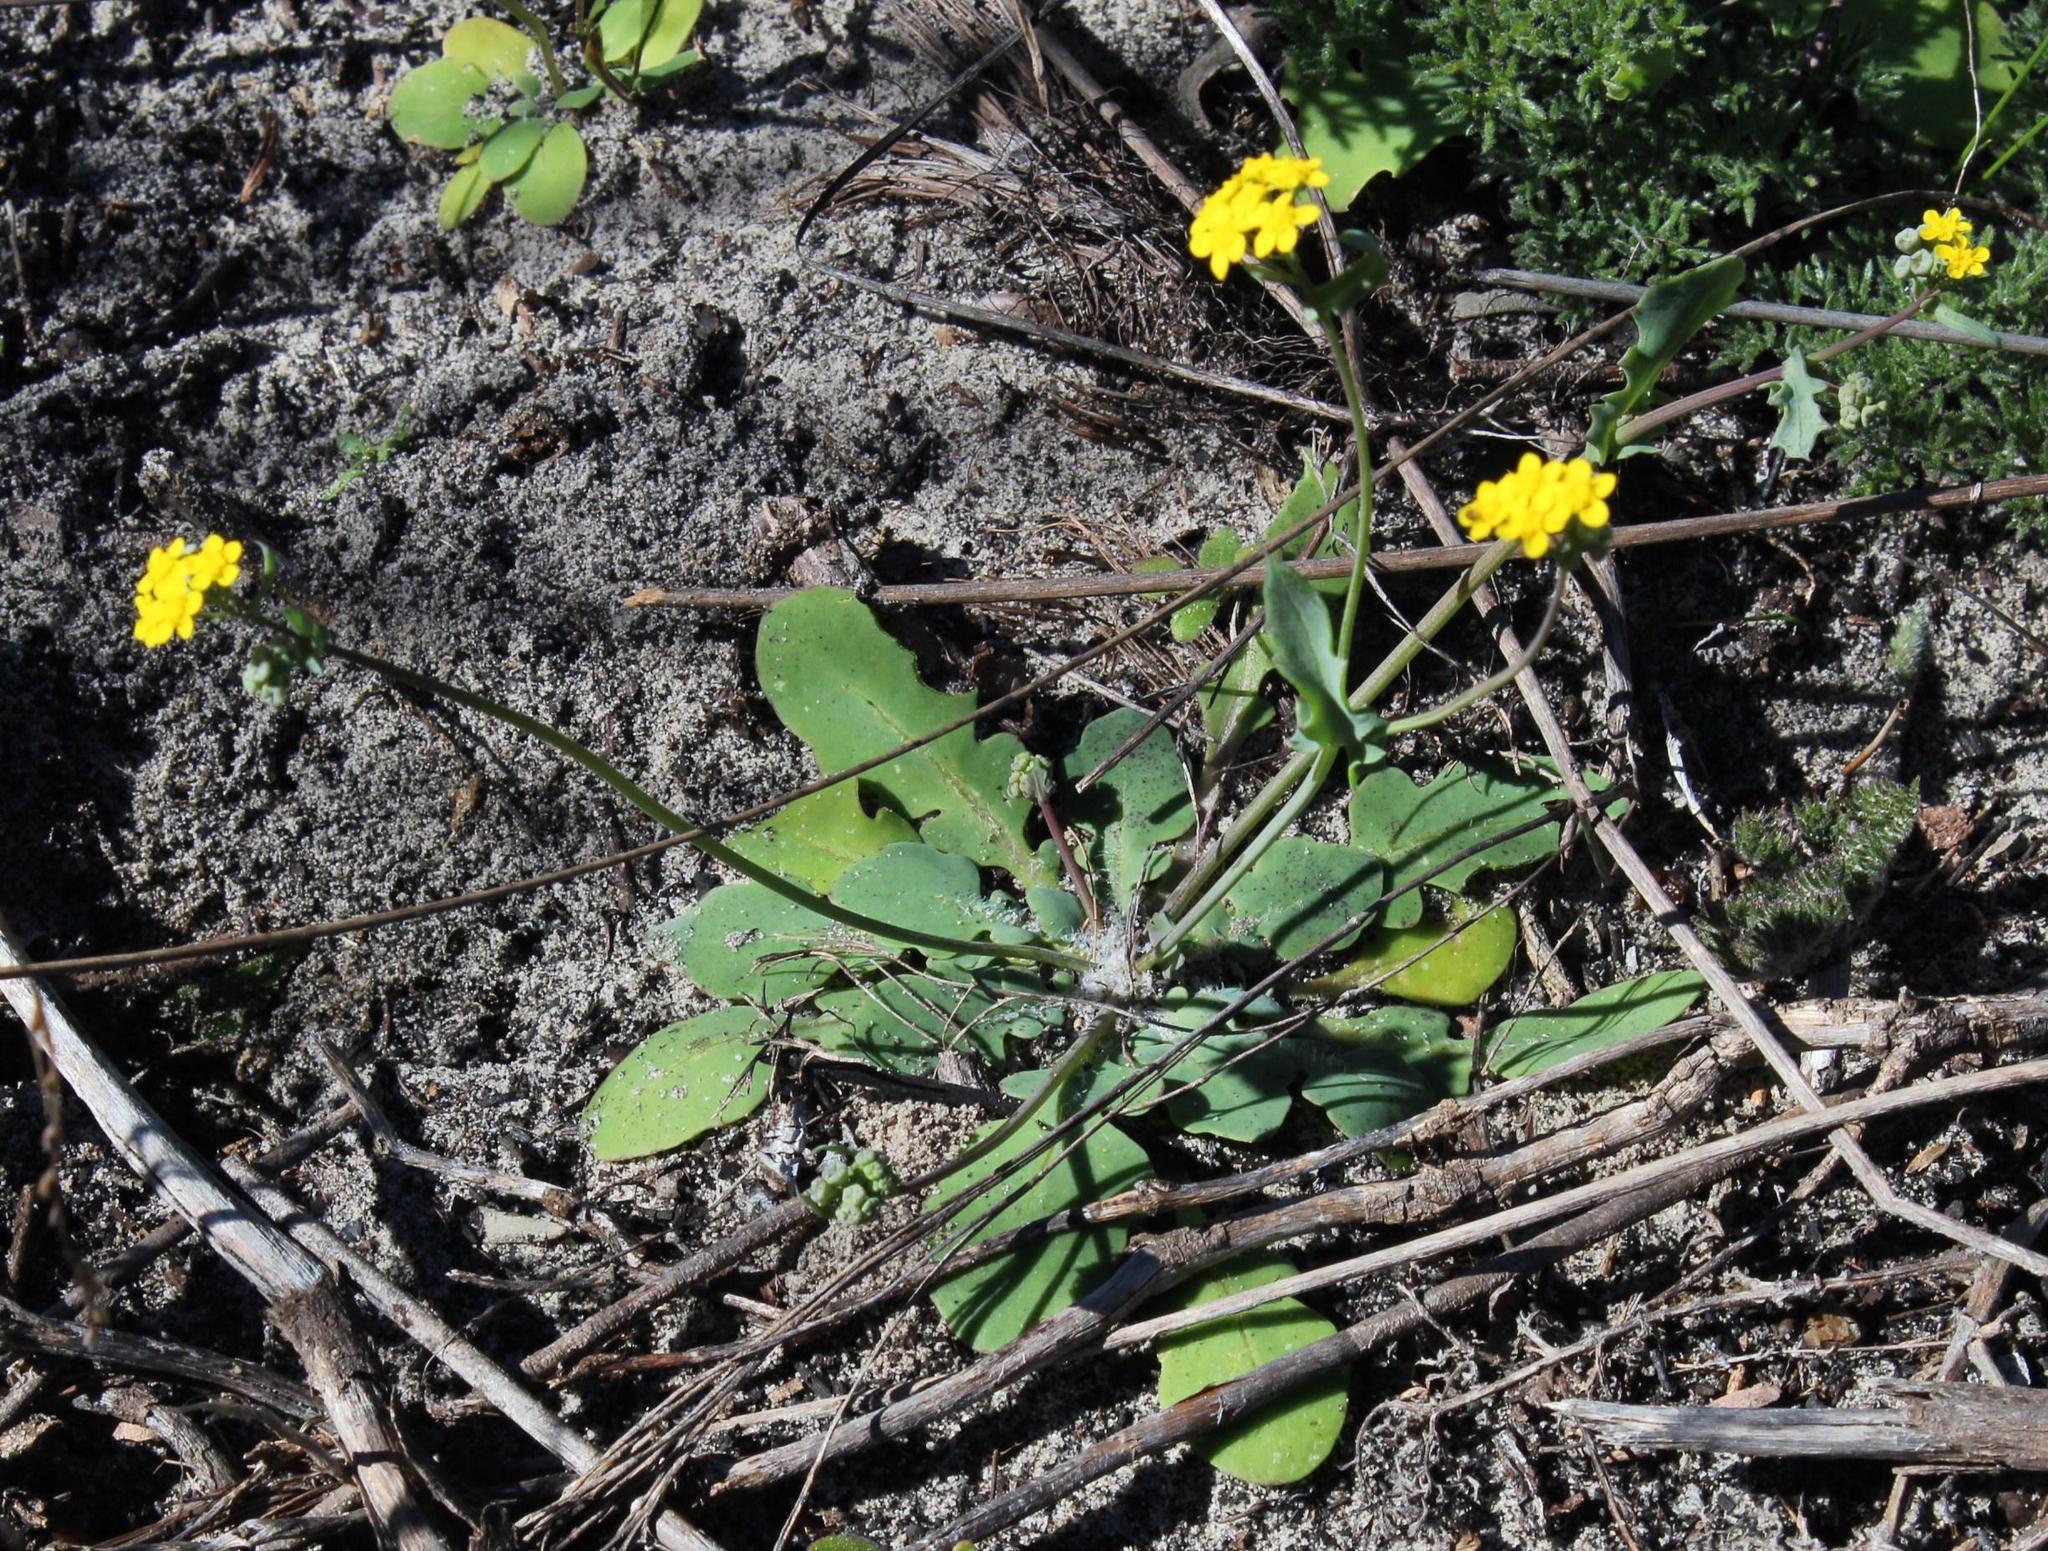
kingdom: Plantae
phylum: Tracheophyta
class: Magnoliopsida
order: Asterales
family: Asteraceae
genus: Gymnodiscus
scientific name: Gymnodiscus capillaris
